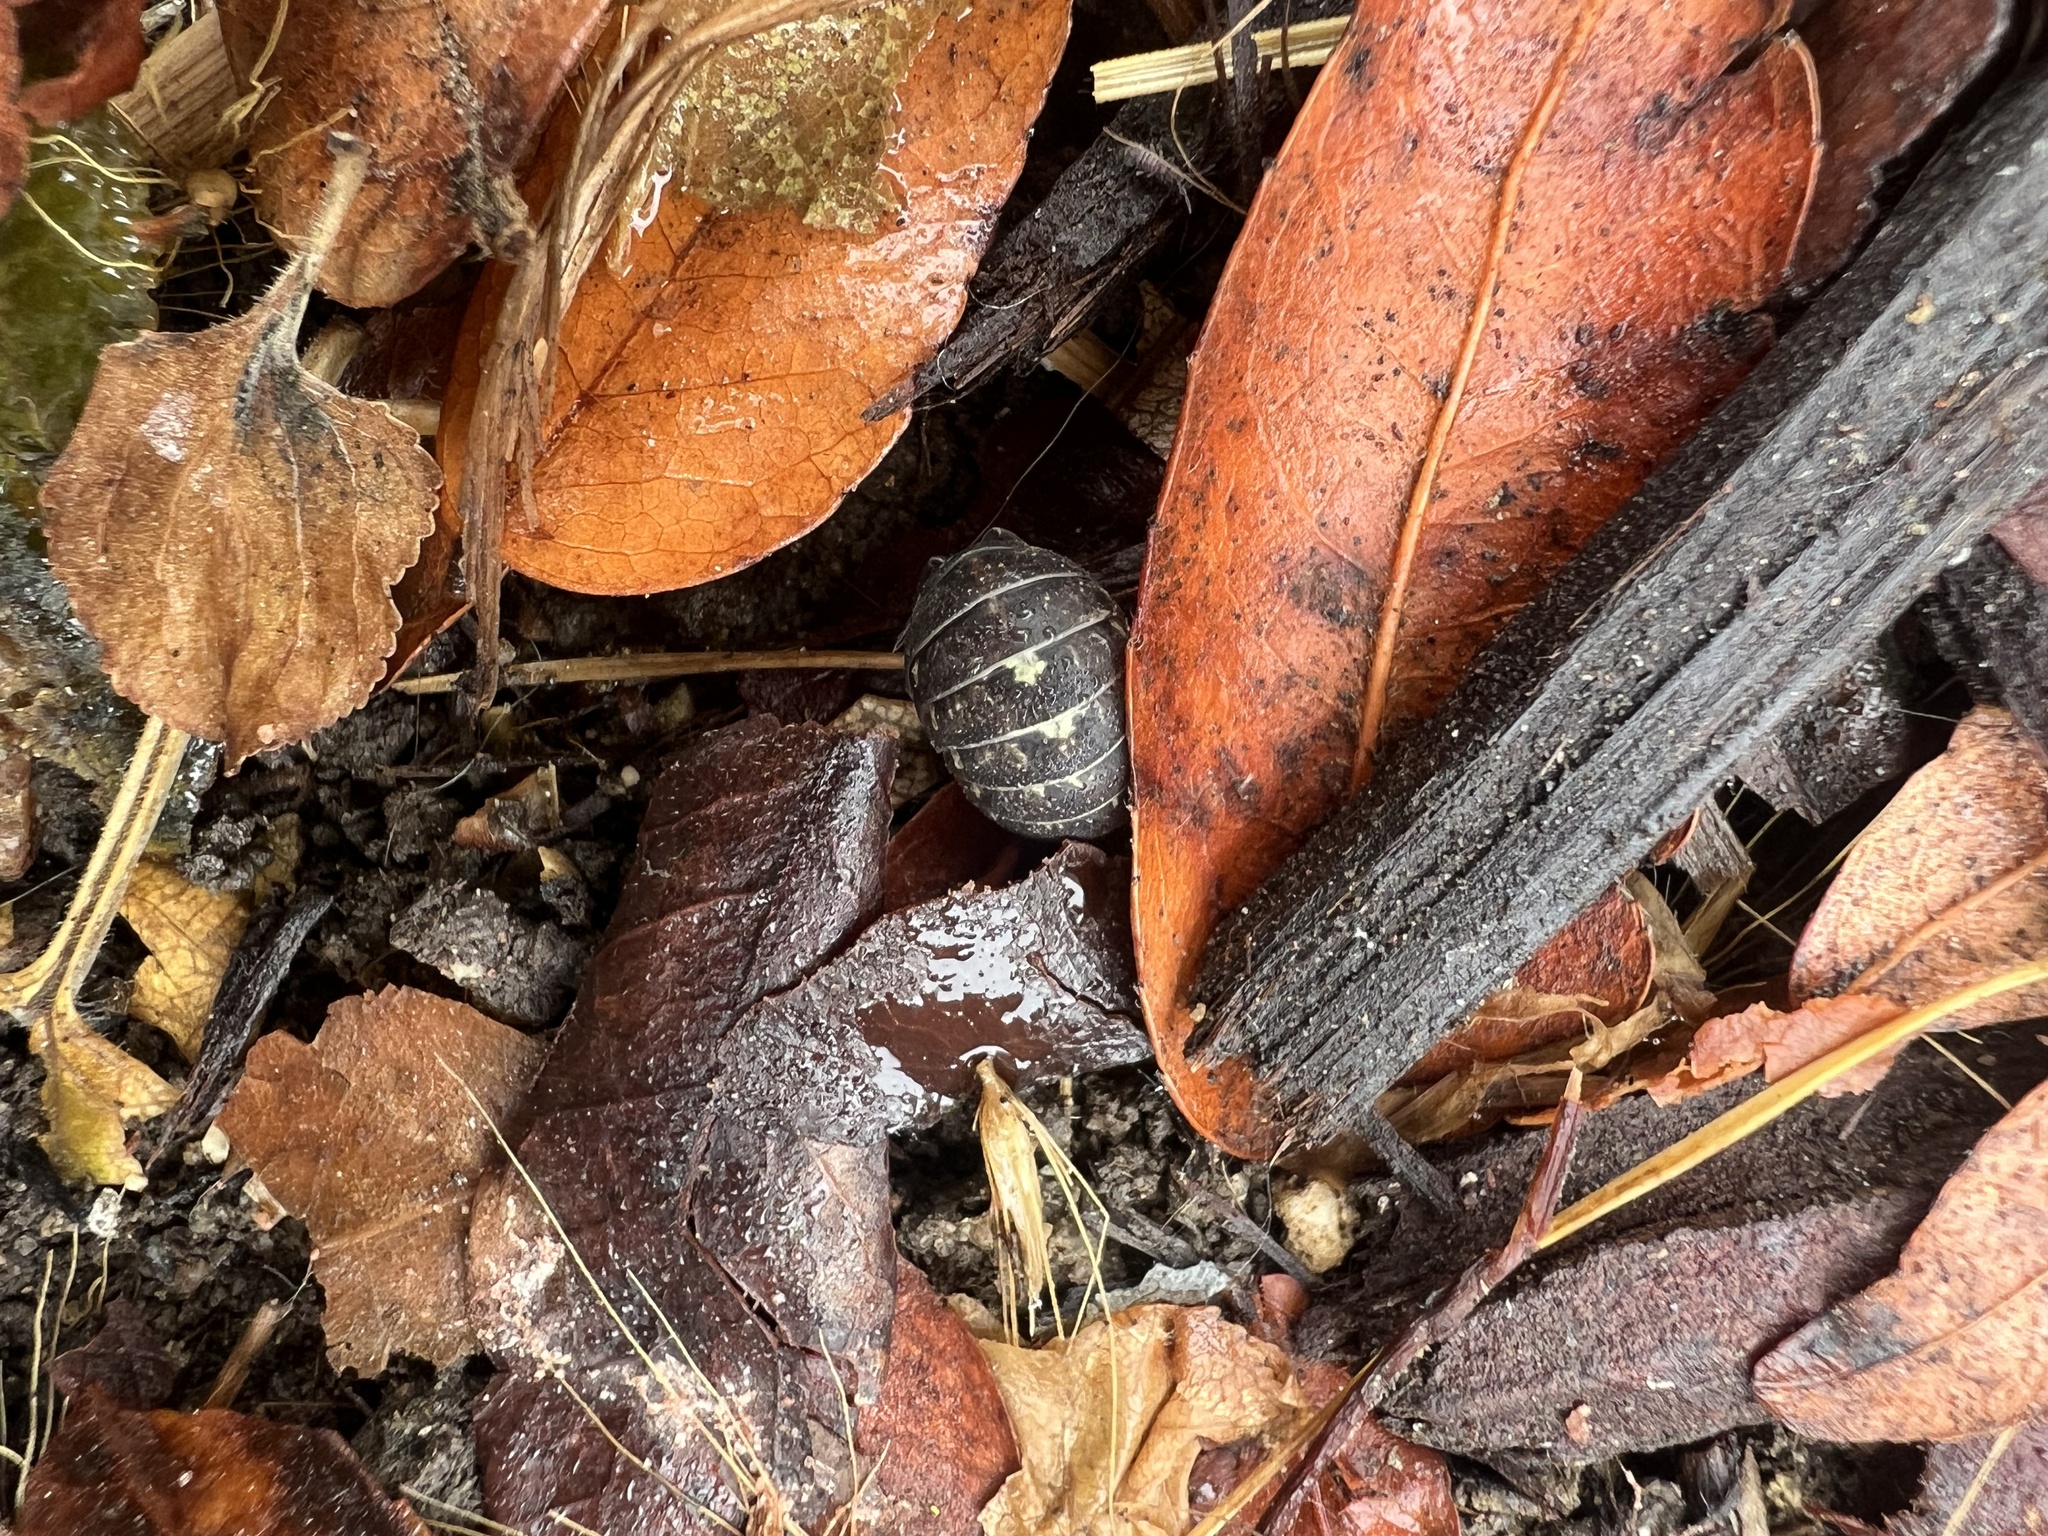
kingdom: Animalia
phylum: Arthropoda
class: Malacostraca
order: Isopoda
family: Armadillidiidae
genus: Armadillidium
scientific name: Armadillidium vulgare
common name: Common pill woodlouse
